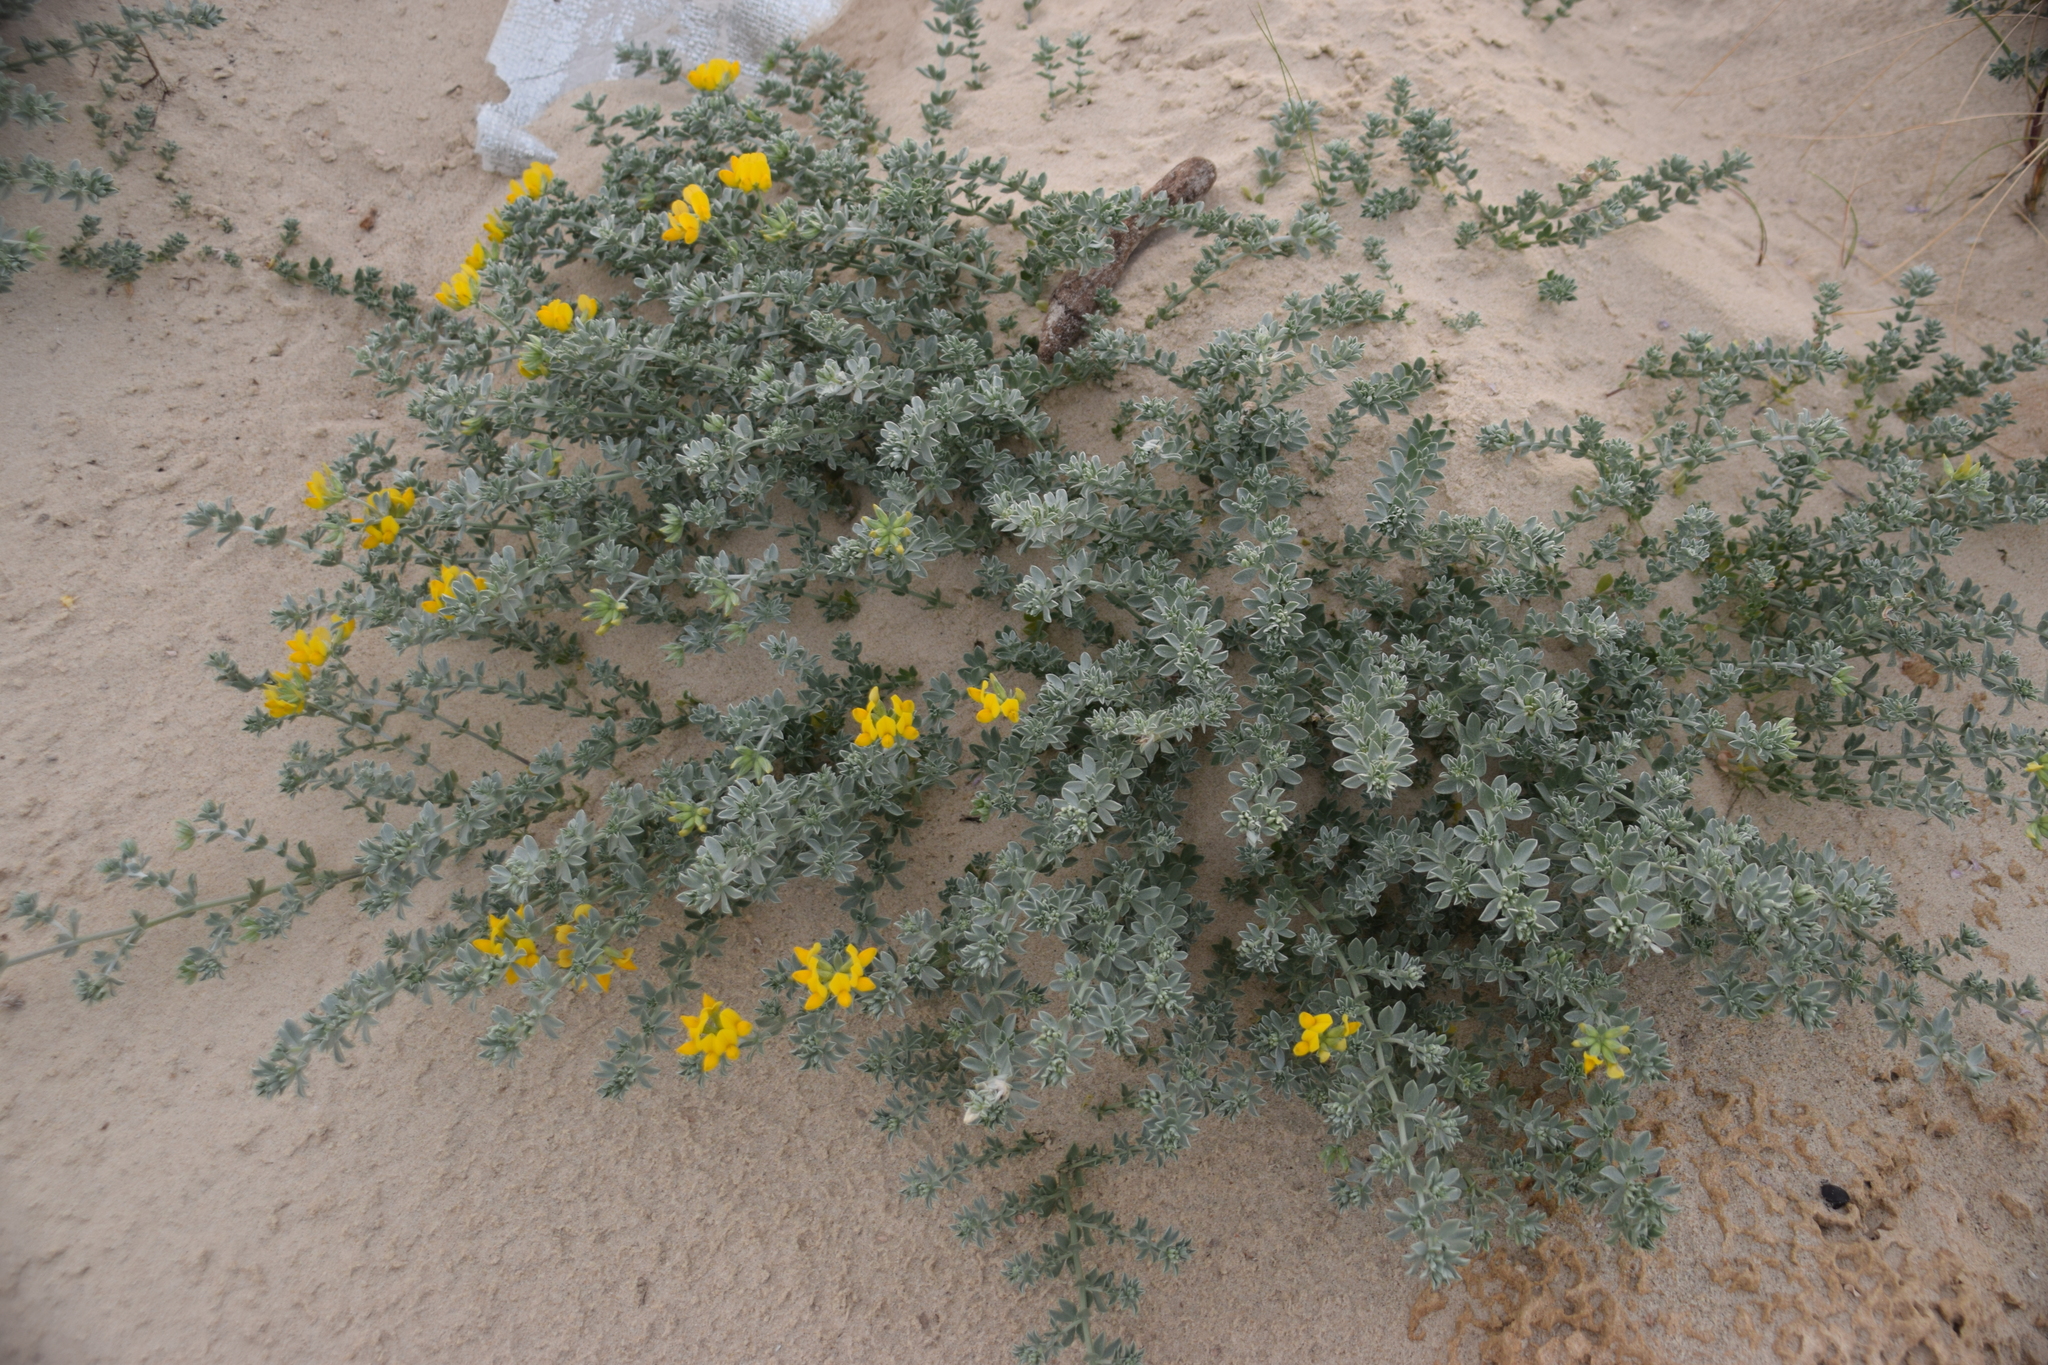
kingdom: Plantae
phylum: Tracheophyta
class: Magnoliopsida
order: Fabales
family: Fabaceae
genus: Lotus
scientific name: Lotus creticus
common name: Cretan bird's-foot trefoil
